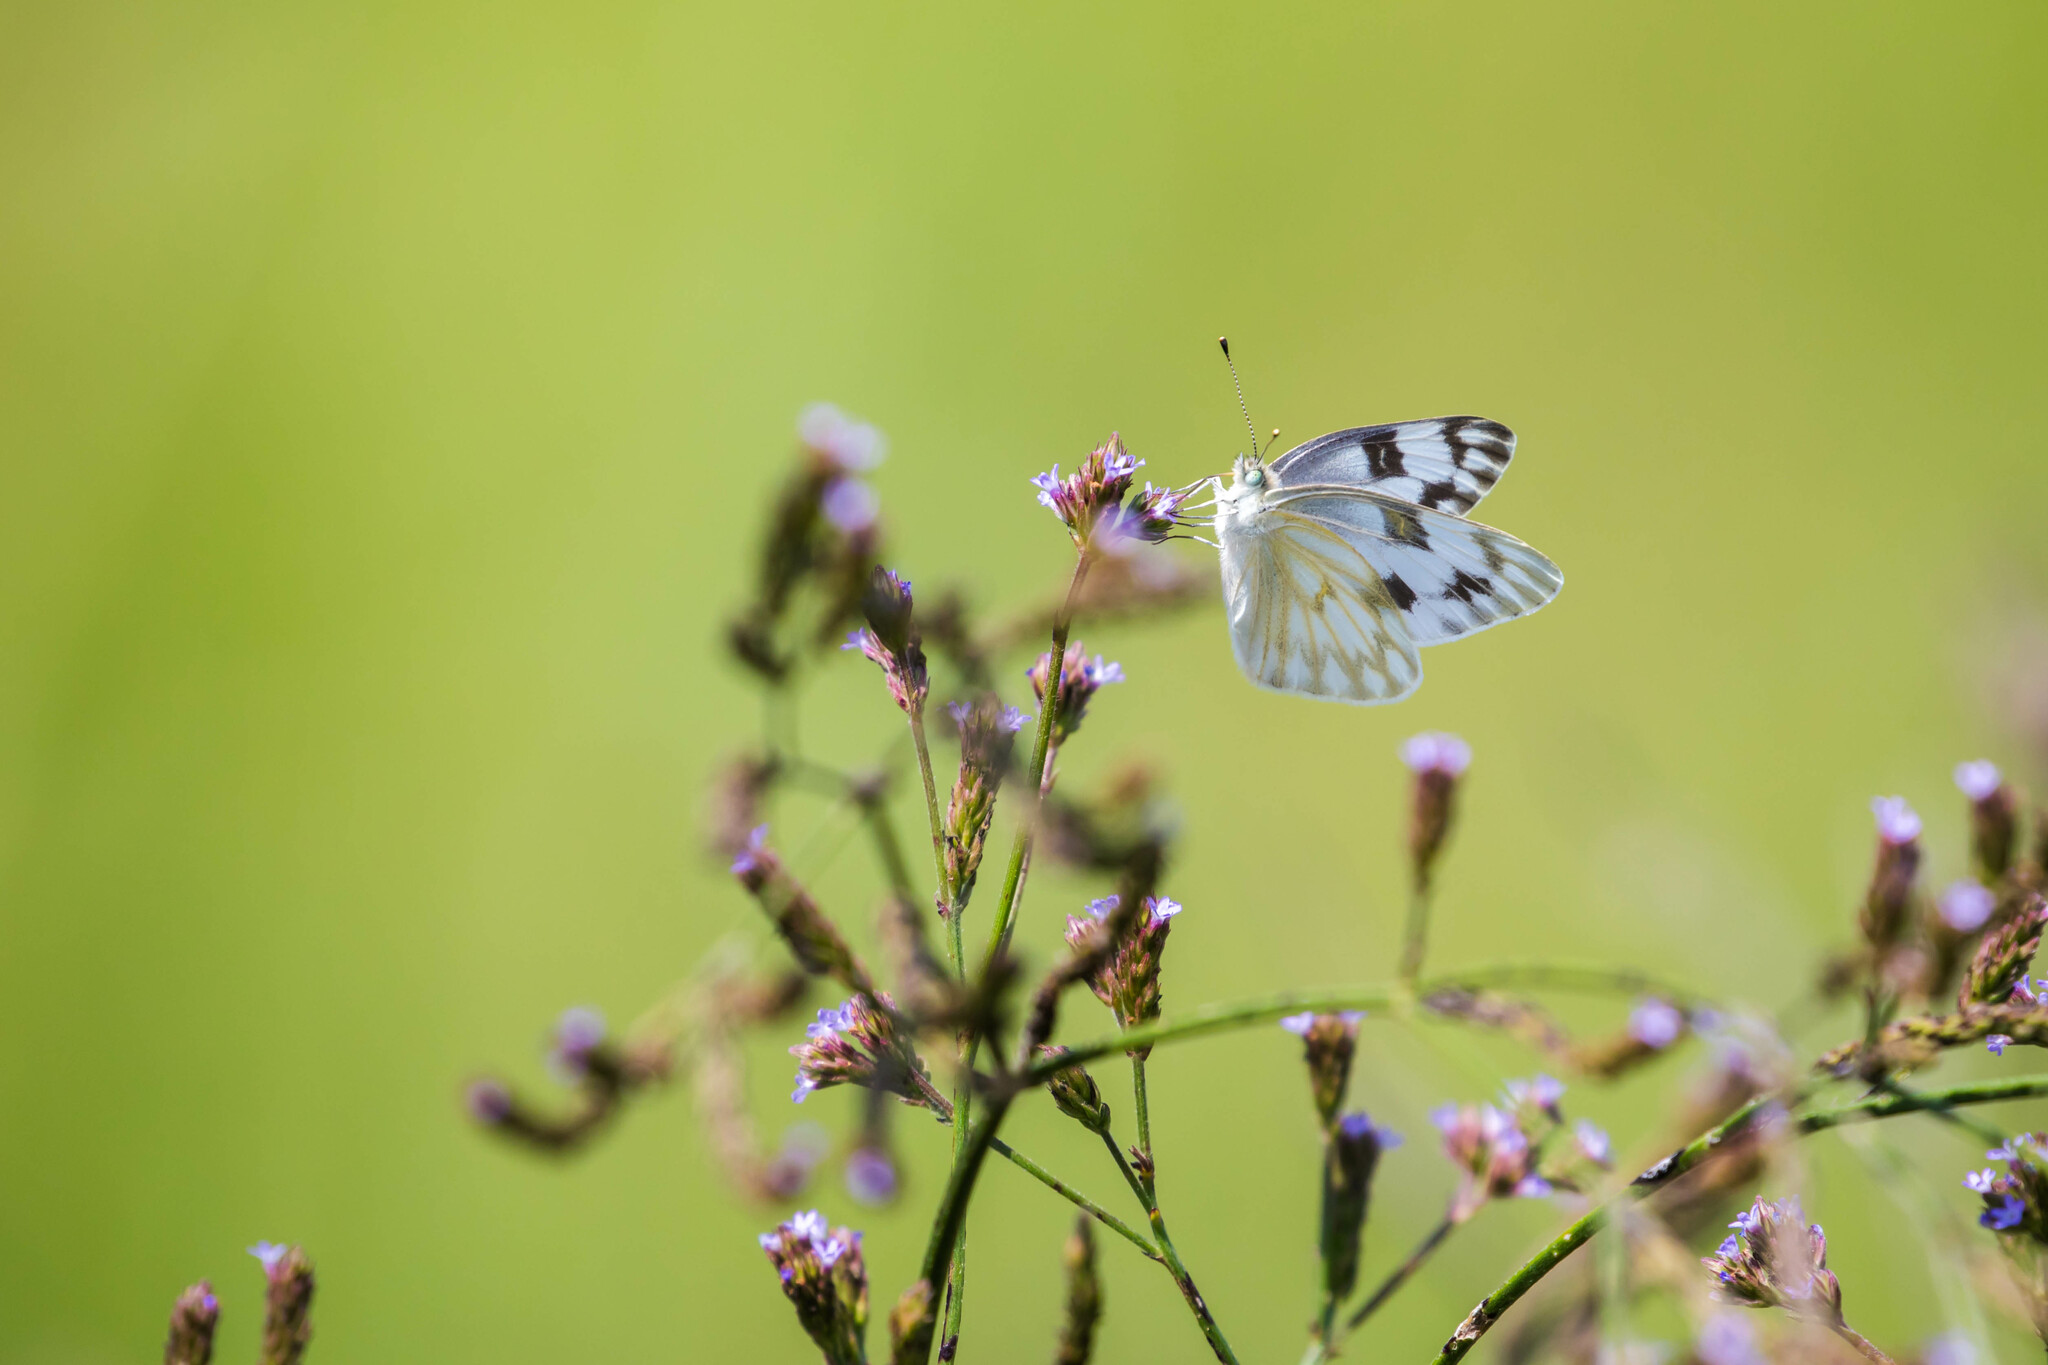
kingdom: Animalia
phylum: Arthropoda
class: Insecta
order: Lepidoptera
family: Pieridae
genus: Pontia
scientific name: Pontia protodice
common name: Checkered white
